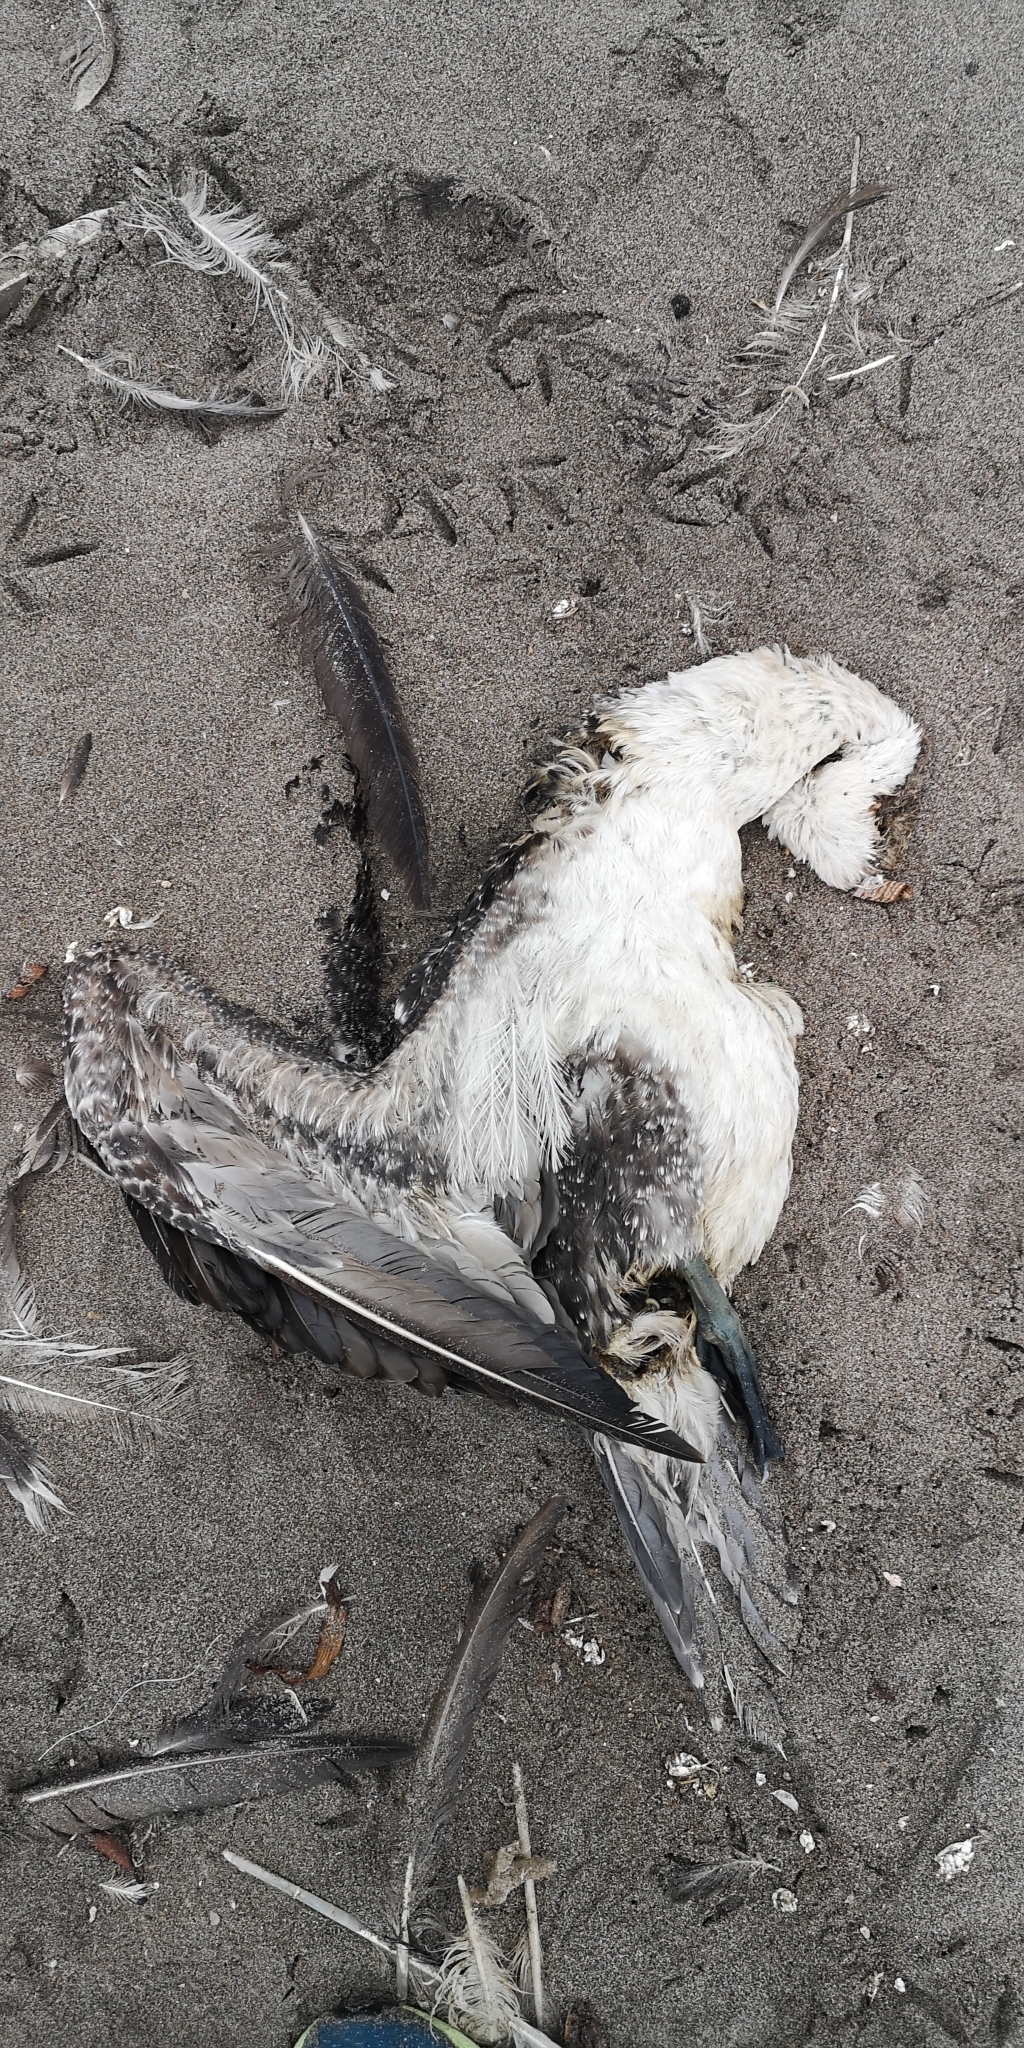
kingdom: Animalia
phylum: Chordata
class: Aves
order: Suliformes
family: Sulidae
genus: Sula
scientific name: Sula variegata
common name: Peruvian booby
